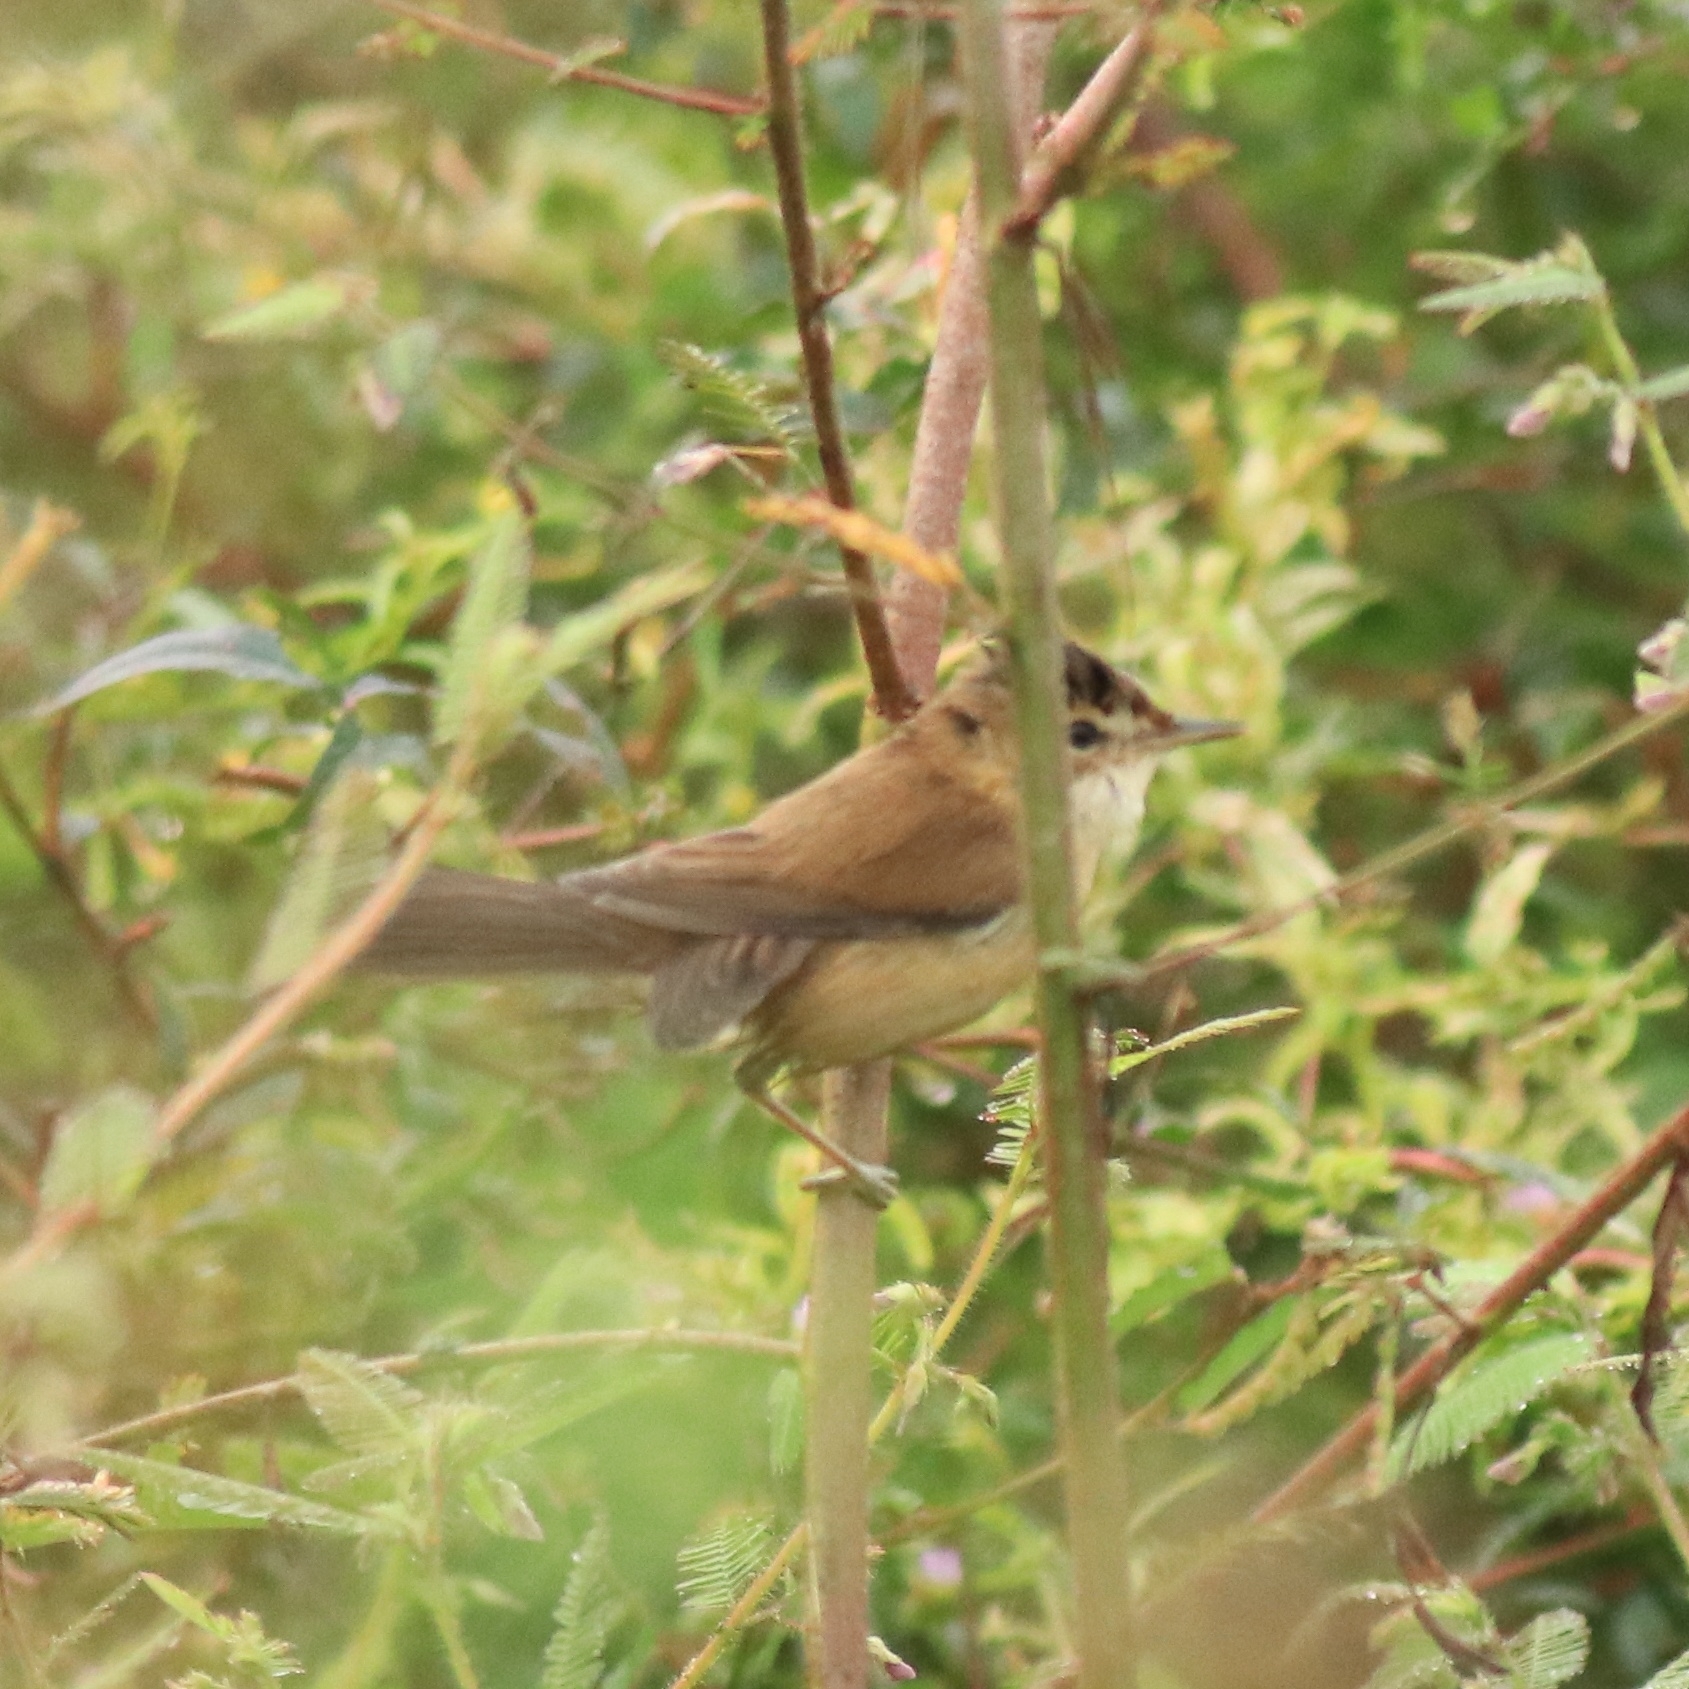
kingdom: Animalia
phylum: Chordata
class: Aves
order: Passeriformes
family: Acrocephalidae
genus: Acrocephalus
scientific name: Acrocephalus agricola
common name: Paddyfield warbler
